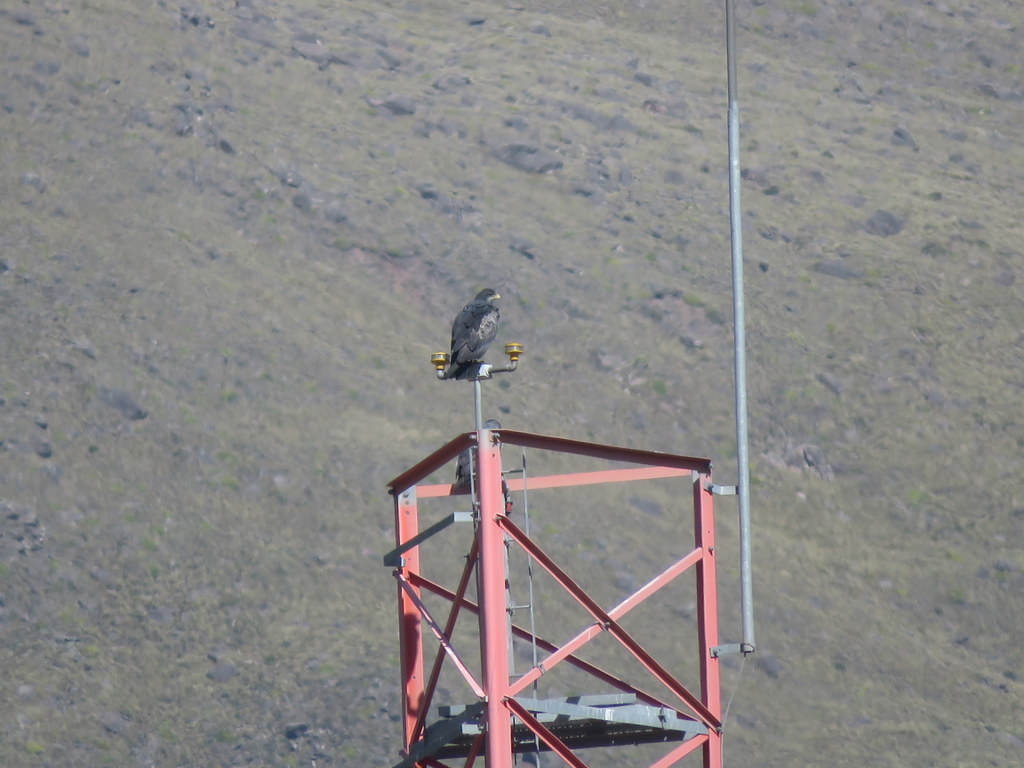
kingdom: Animalia
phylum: Chordata
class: Aves
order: Accipitriformes
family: Accipitridae
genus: Geranoaetus
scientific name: Geranoaetus melanoleucus
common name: Black-chested buzzard-eagle
